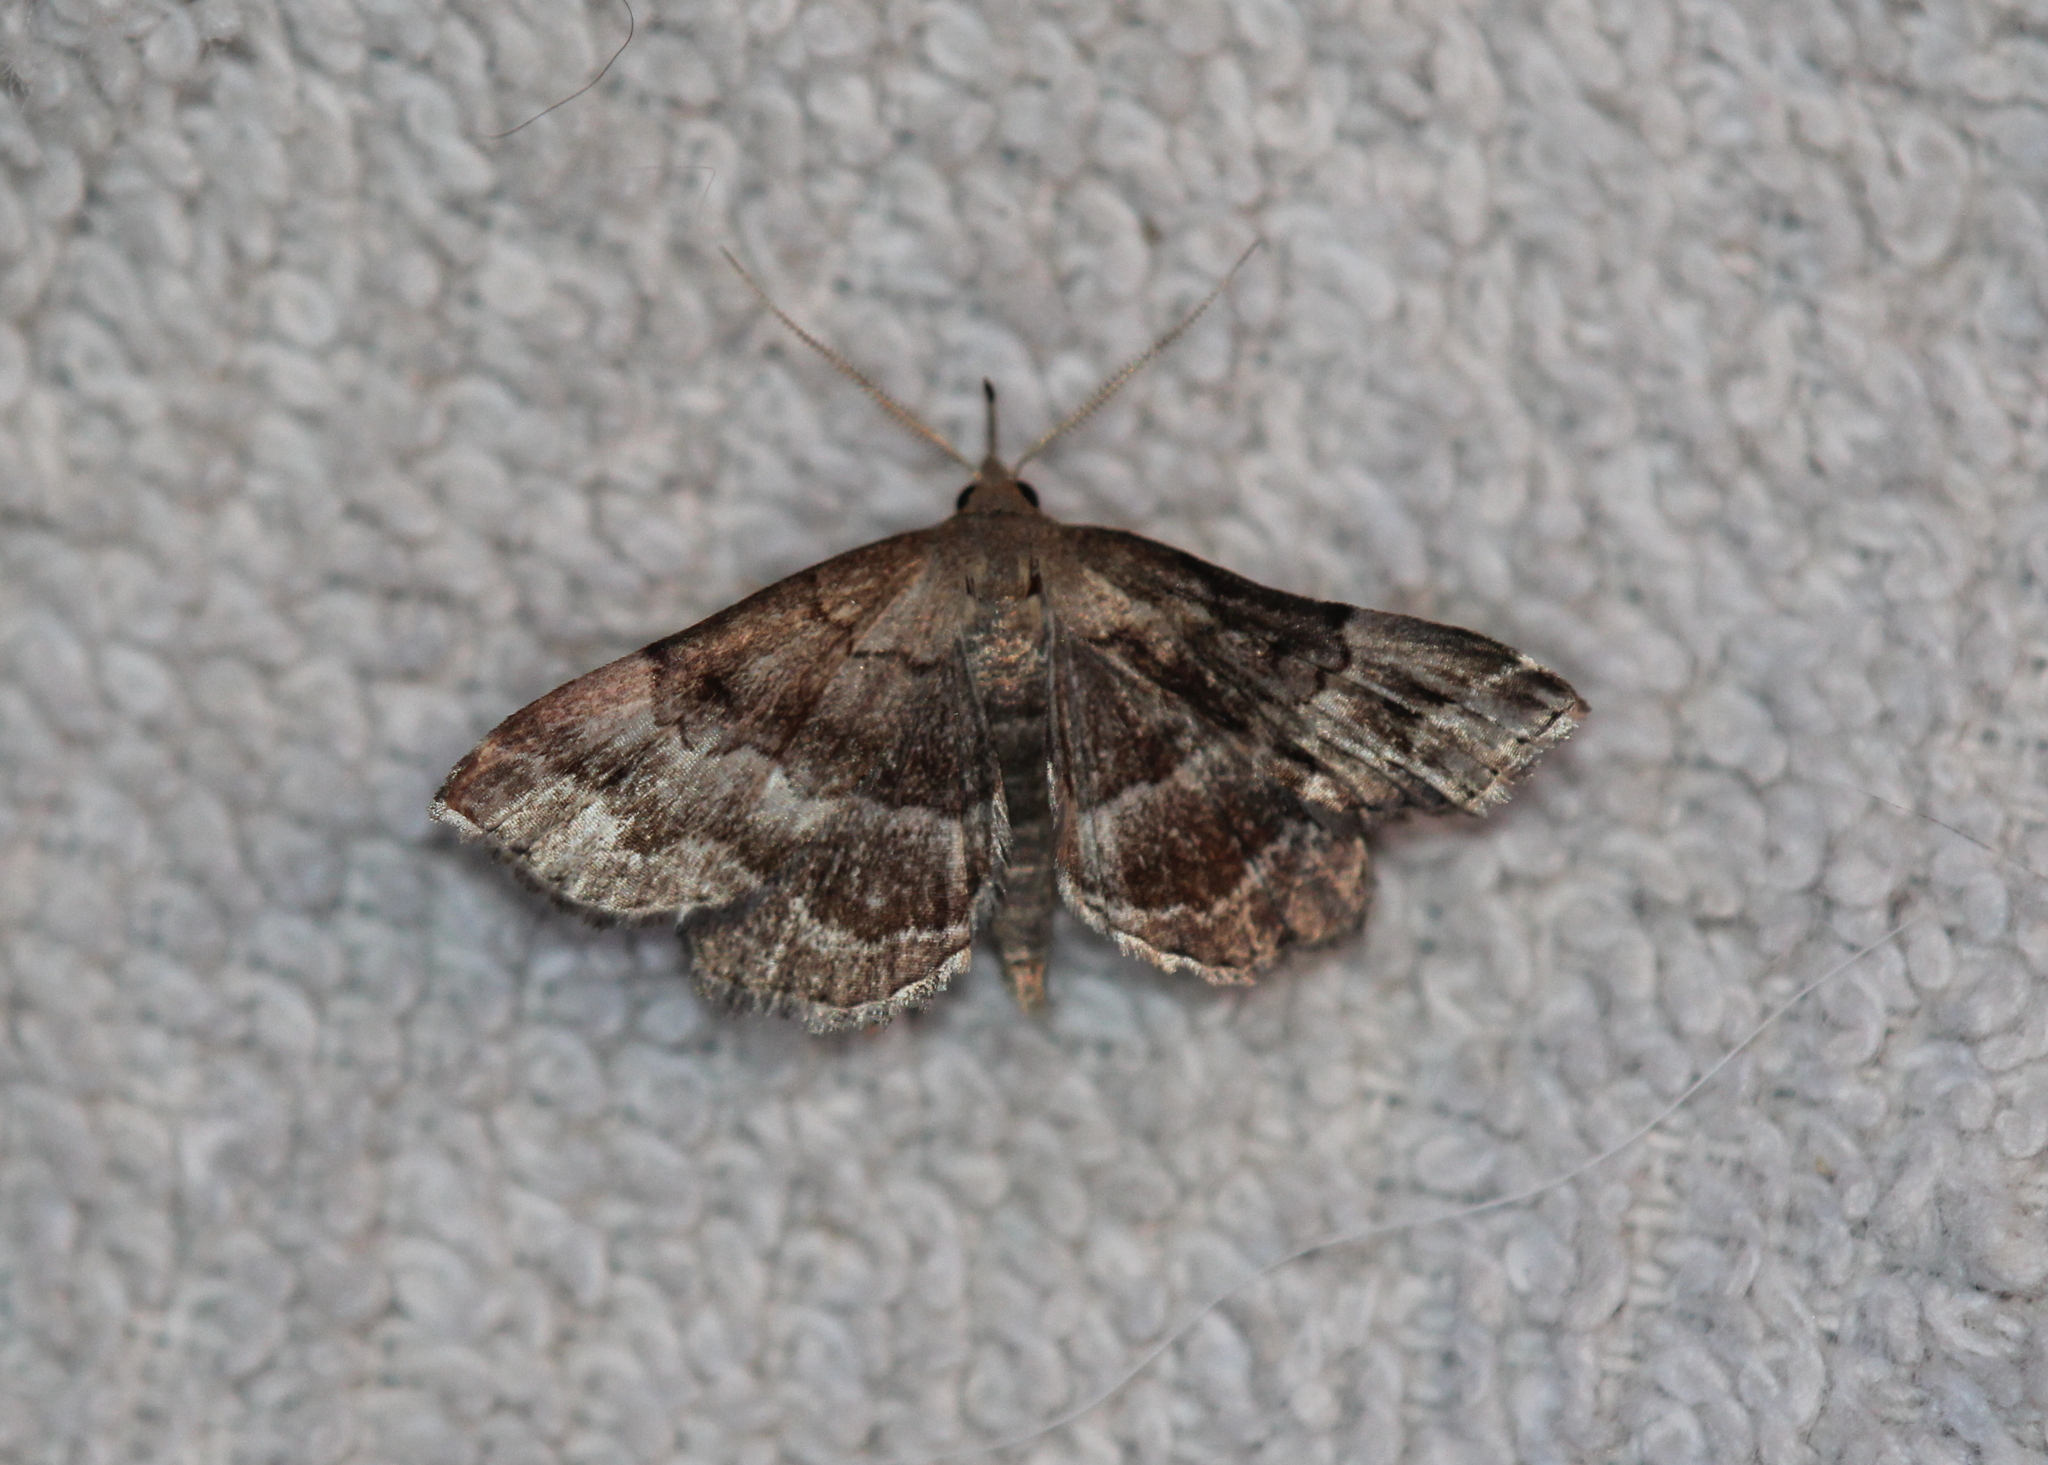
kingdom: Animalia
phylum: Arthropoda
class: Insecta
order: Lepidoptera
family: Erebidae
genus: Phalaenostola
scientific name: Phalaenostola larentioides
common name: Black-banded owlet
